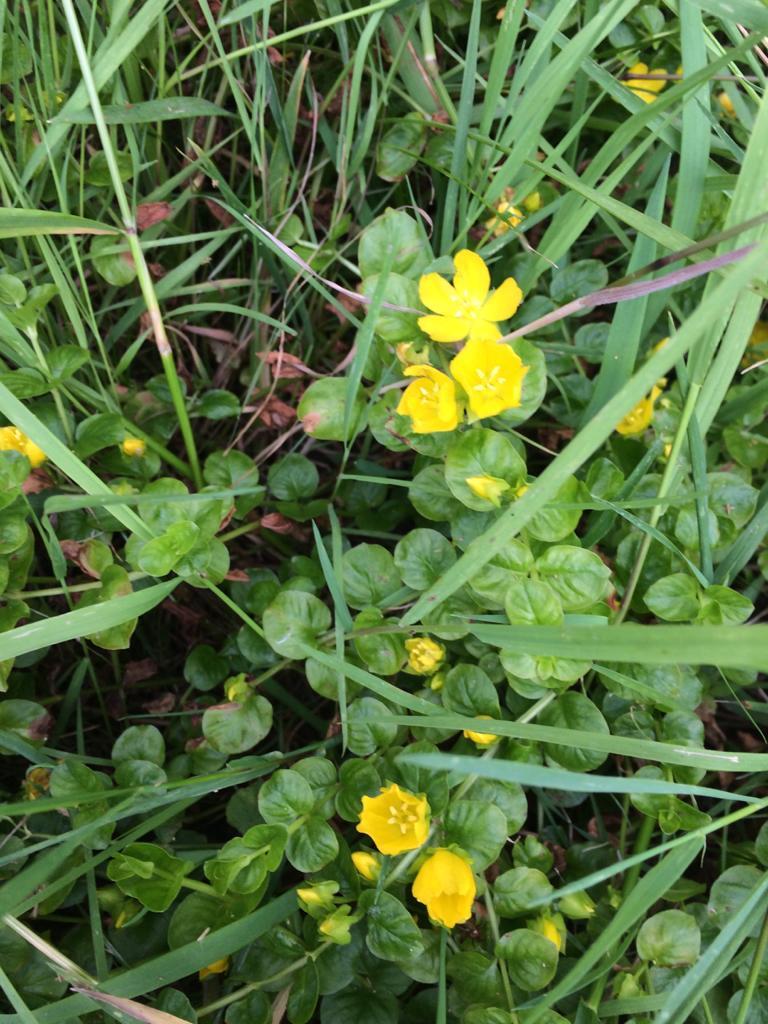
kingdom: Plantae
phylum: Tracheophyta
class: Magnoliopsida
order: Ericales
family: Primulaceae
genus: Lysimachia
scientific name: Lysimachia nummularia
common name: Moneywort
